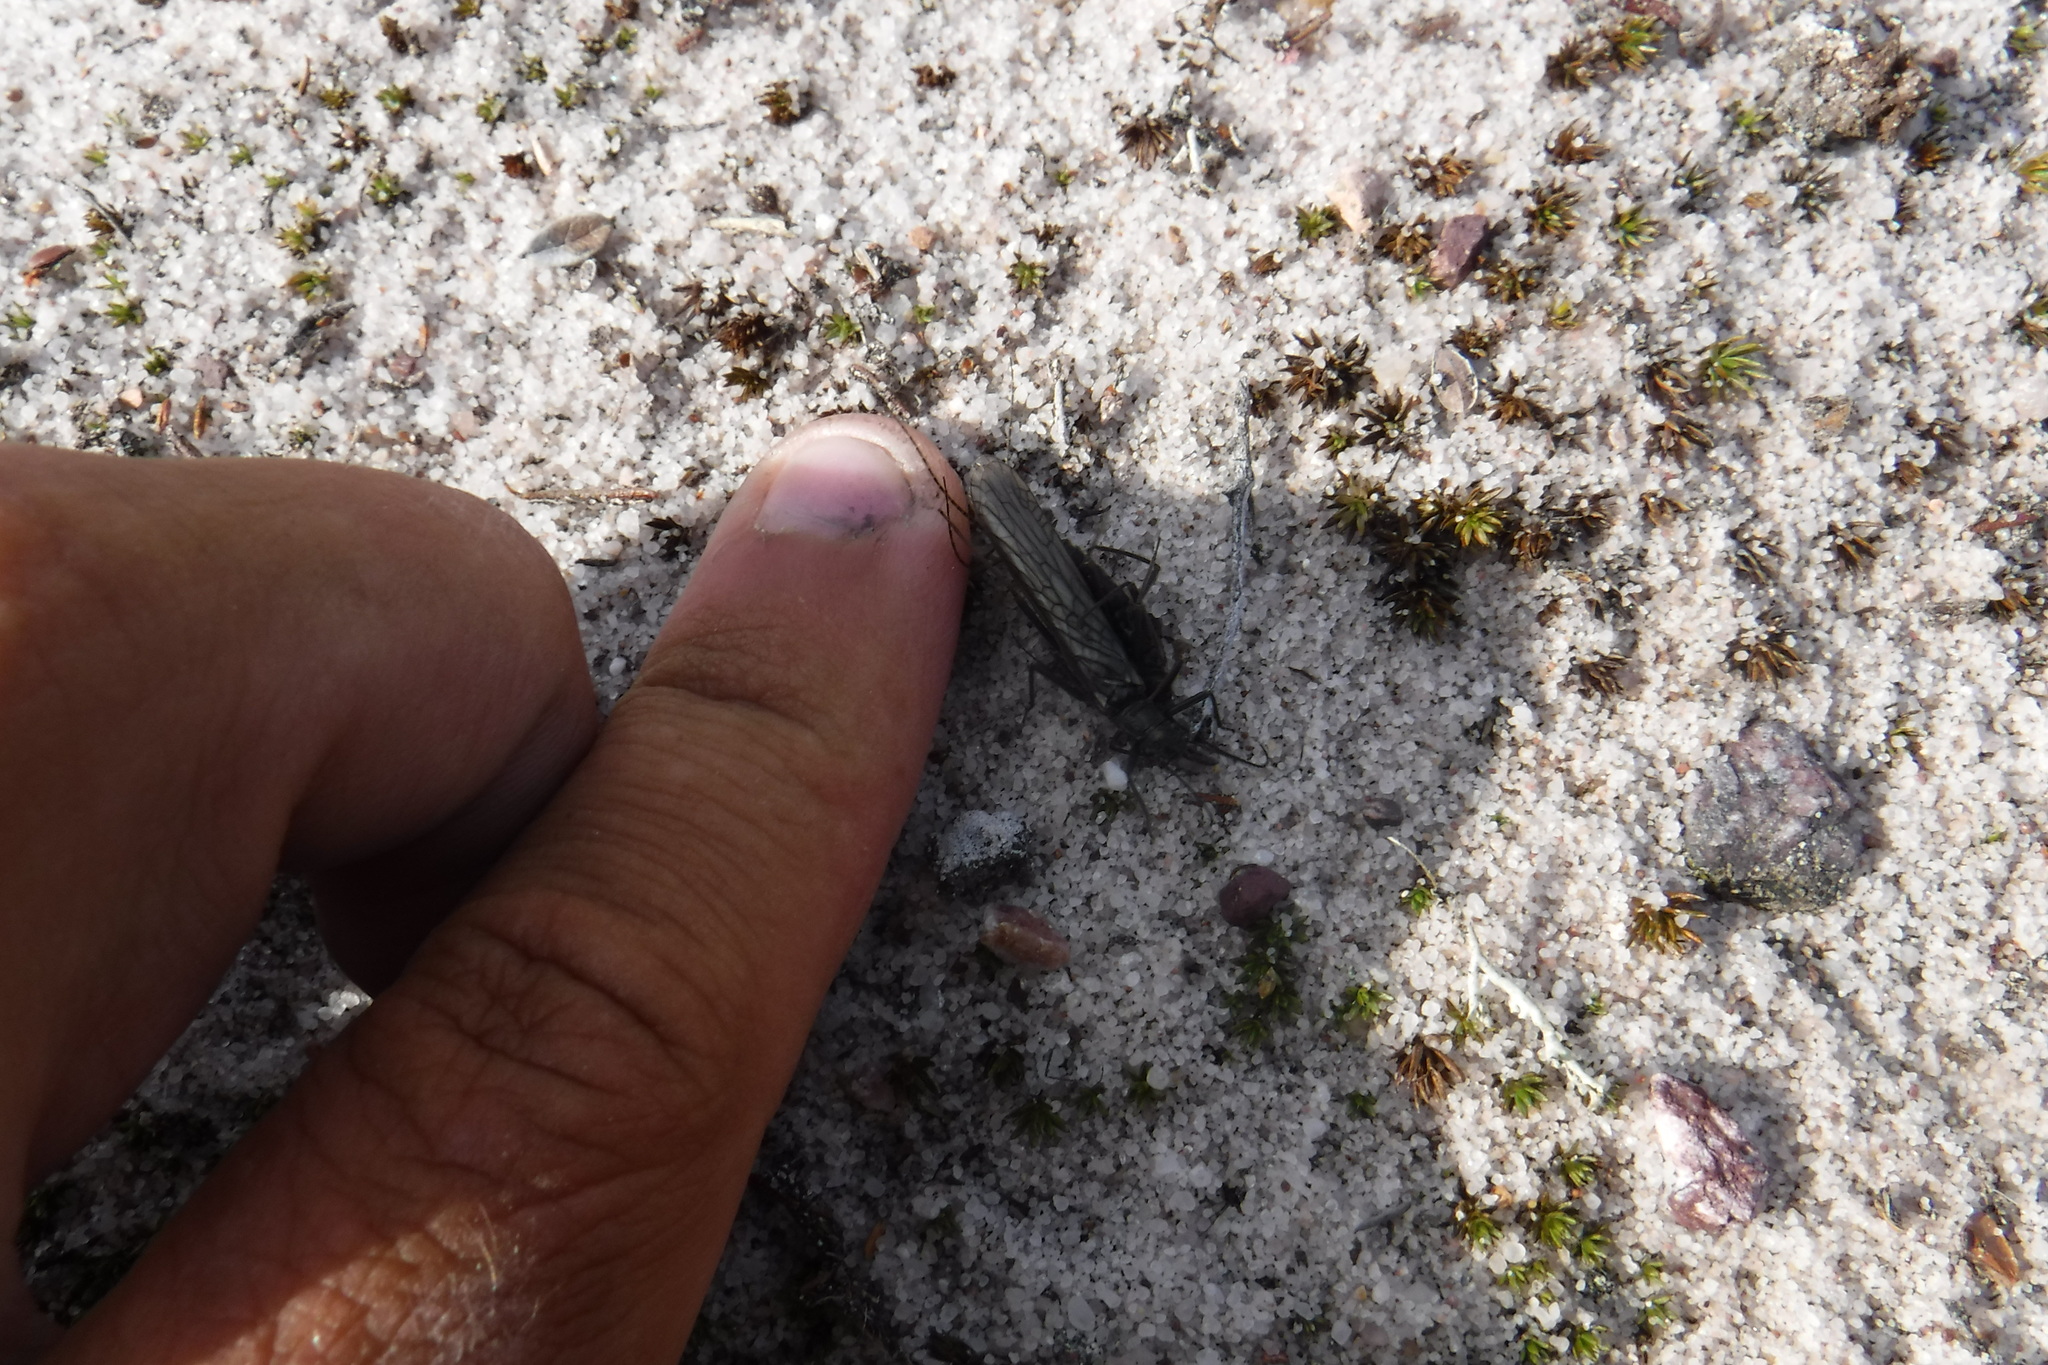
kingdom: Animalia
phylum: Arthropoda
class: Insecta
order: Plecoptera
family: Perlodidae
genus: Diura
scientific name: Diura bicaudata
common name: Lapland springfly
